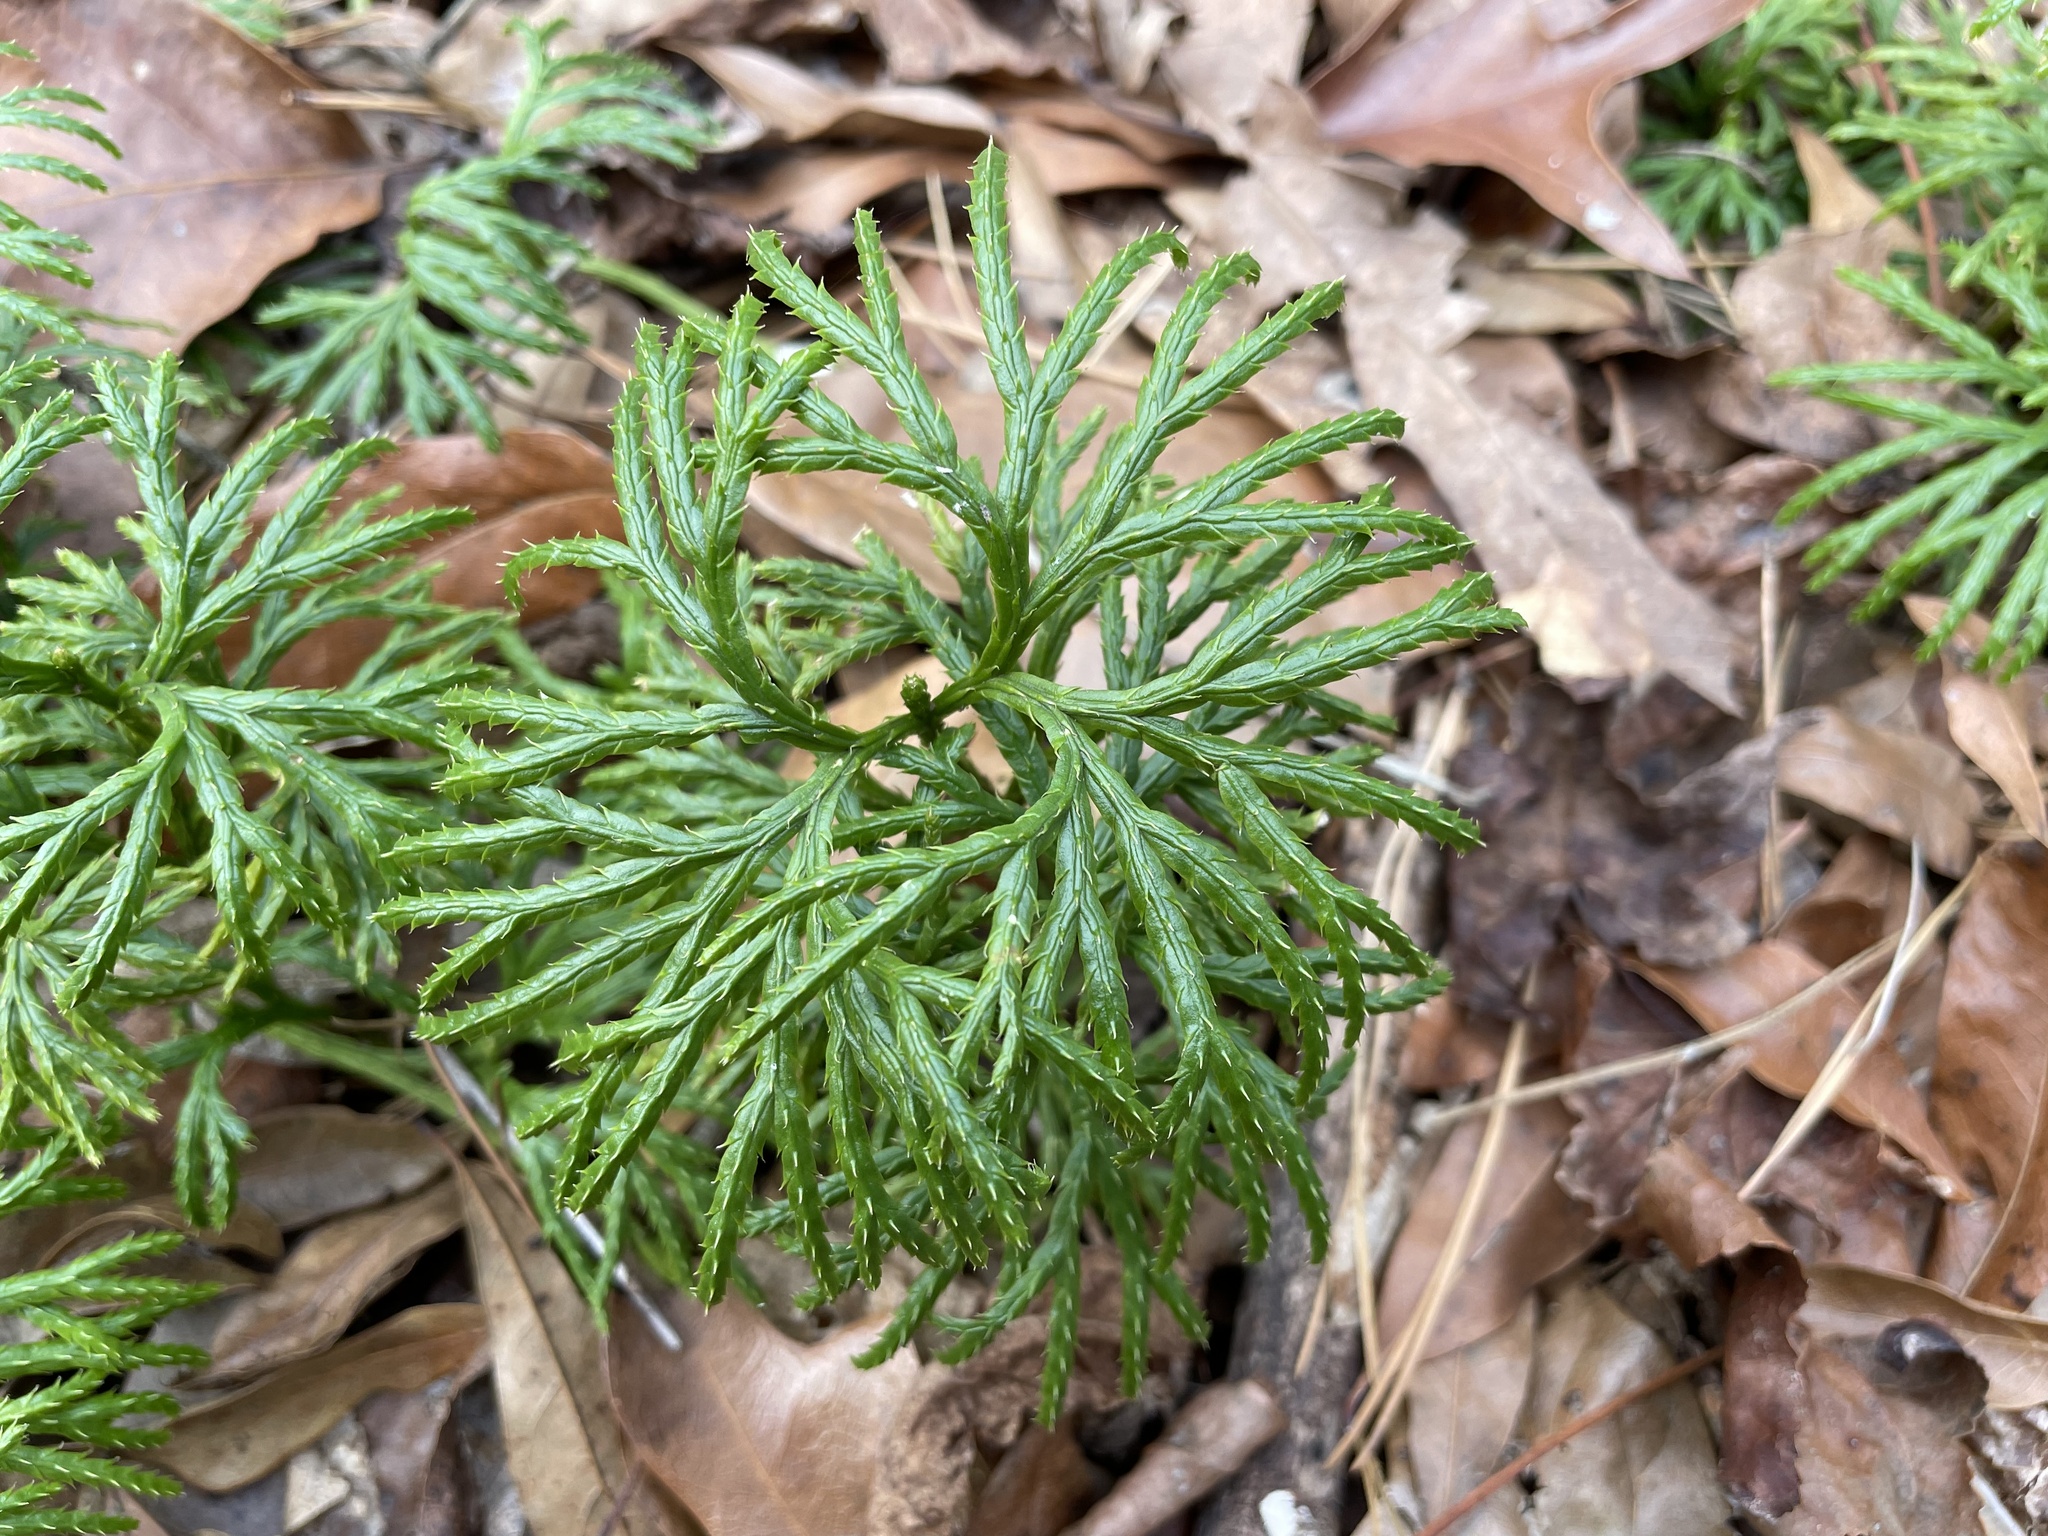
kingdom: Plantae
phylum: Tracheophyta
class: Lycopodiopsida
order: Lycopodiales
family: Lycopodiaceae
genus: Diphasiastrum
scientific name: Diphasiastrum digitatum
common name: Southern running-pine
